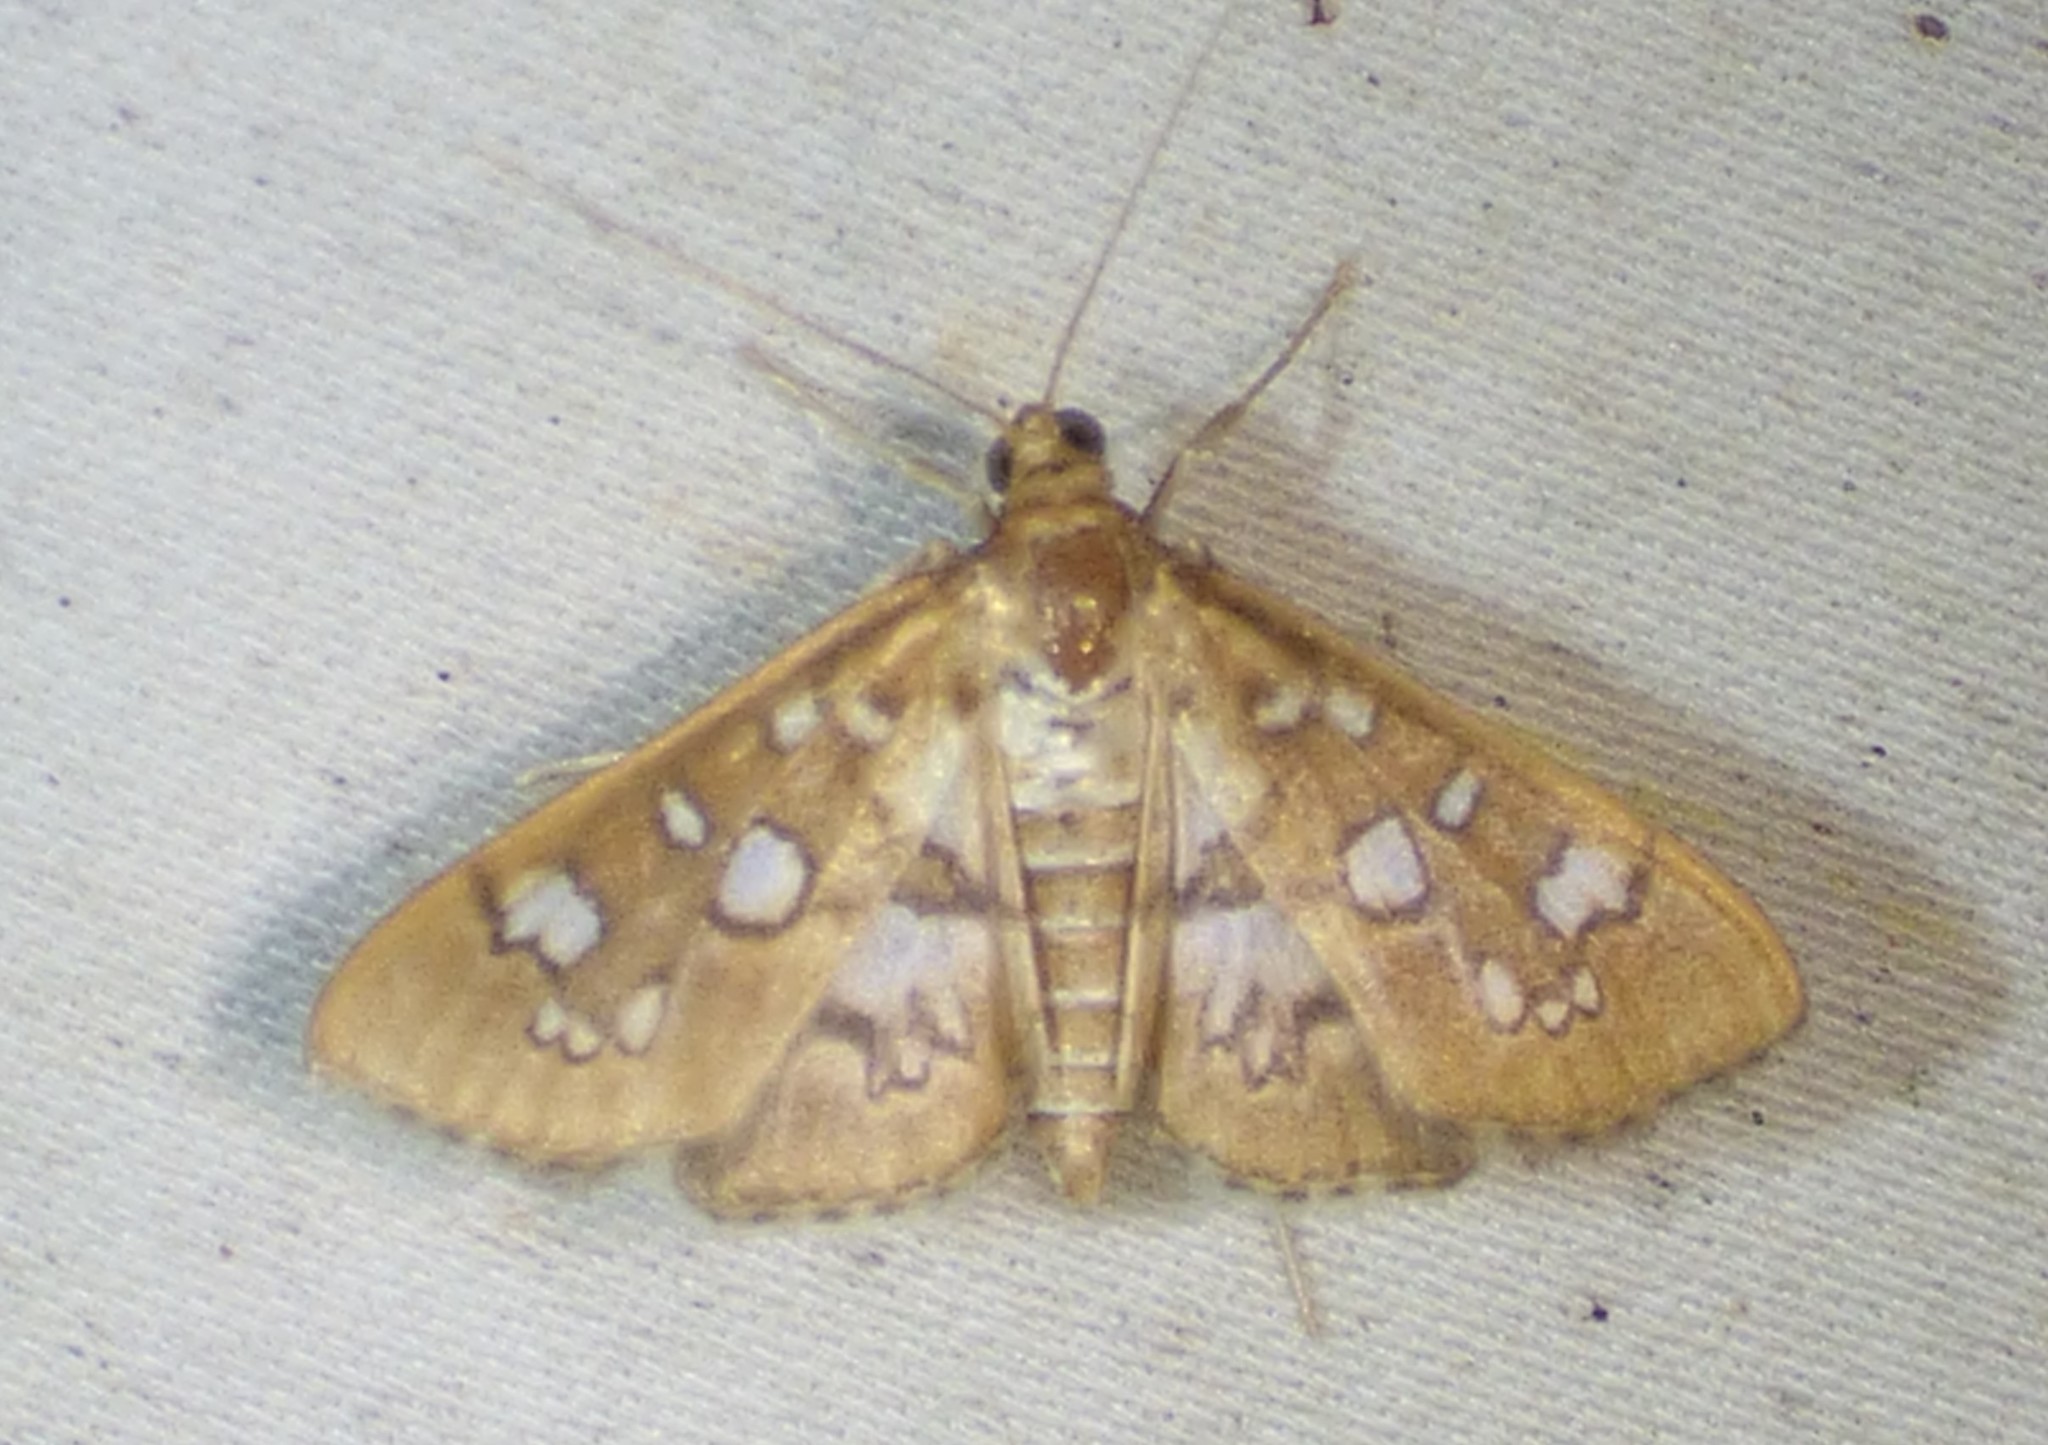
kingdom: Animalia
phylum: Arthropoda
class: Insecta
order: Lepidoptera
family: Crambidae
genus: Samea
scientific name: Samea baccatalis
